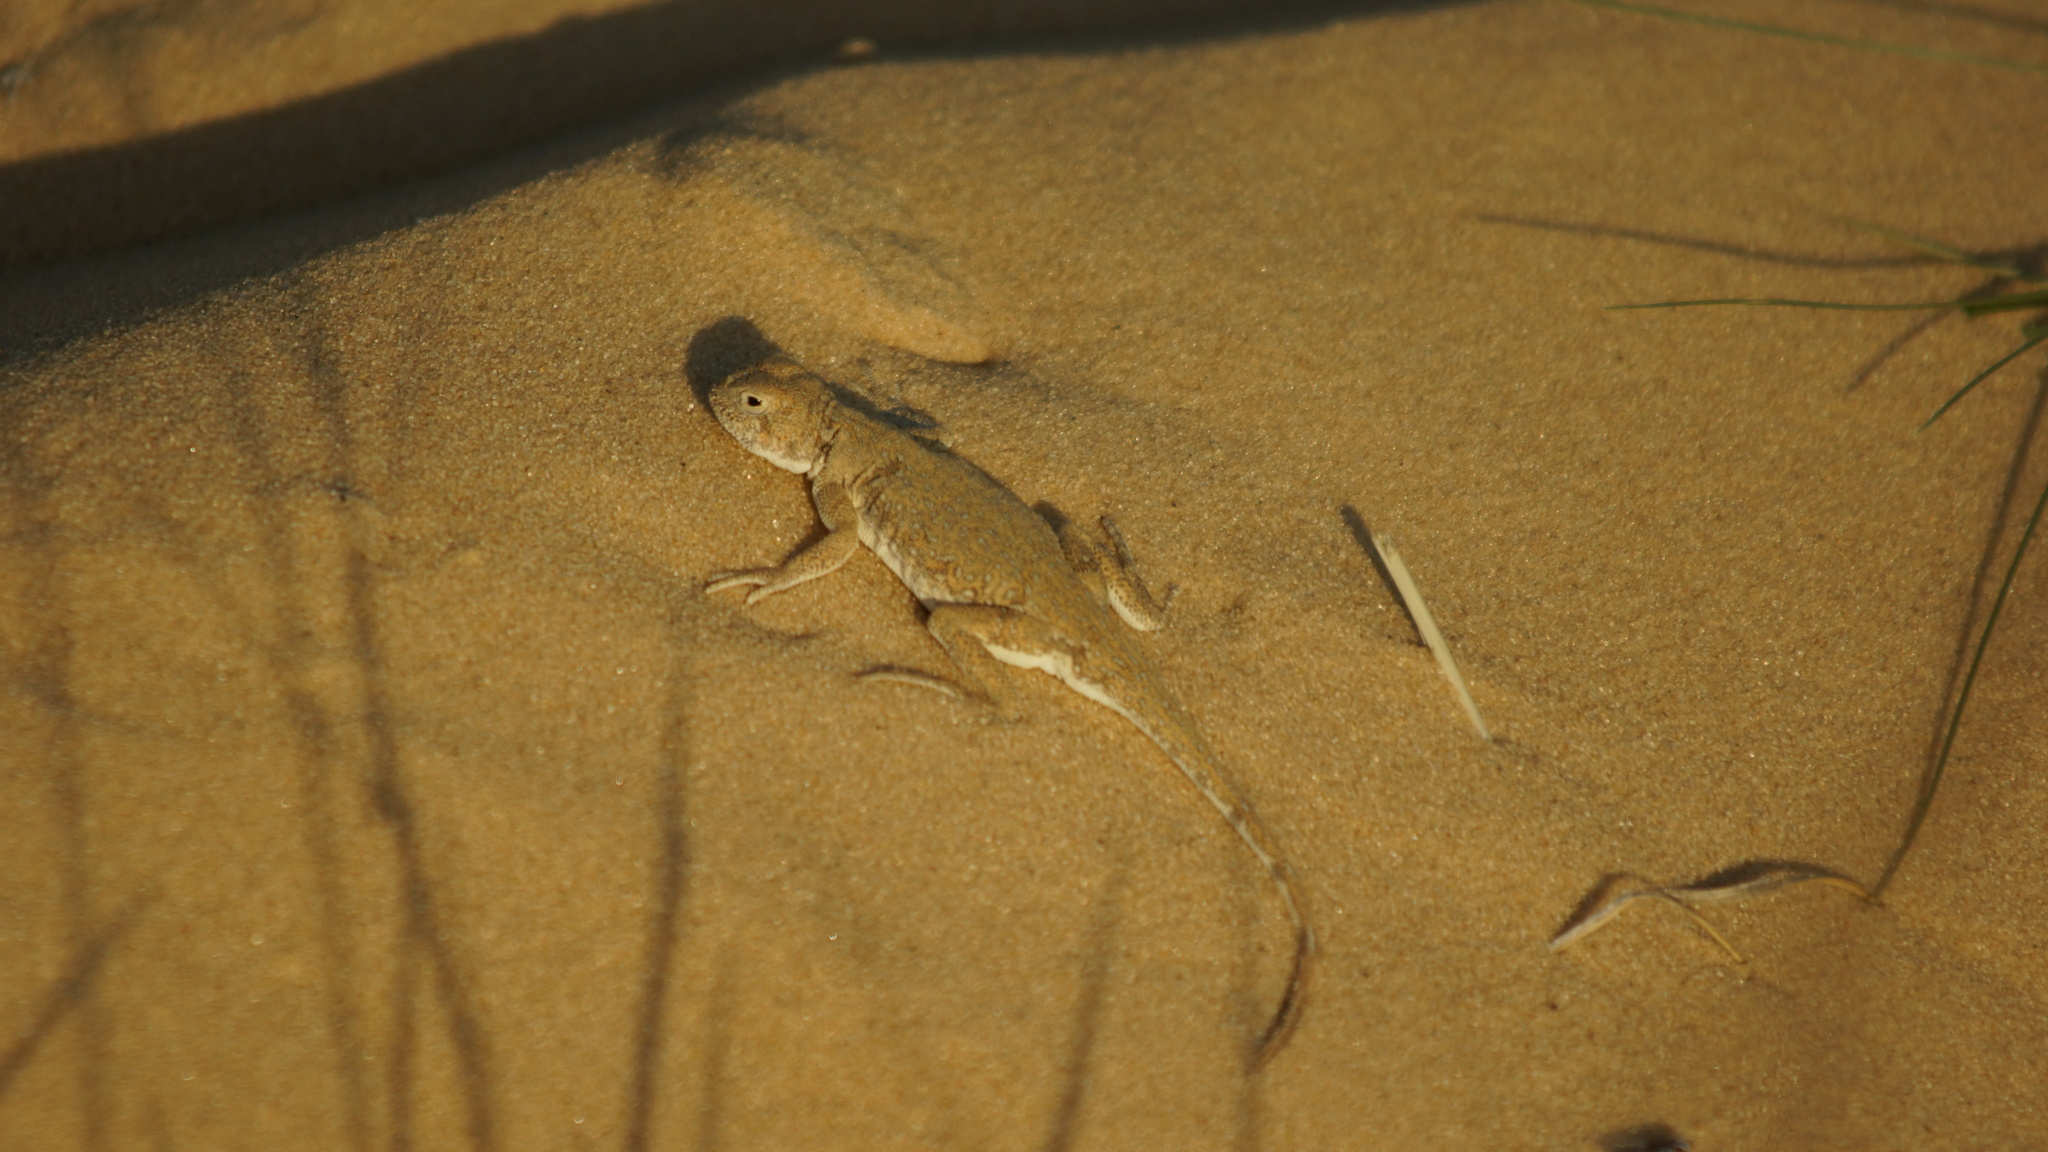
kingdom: Animalia
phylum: Chordata
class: Squamata
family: Agamidae
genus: Phrynocephalus
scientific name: Phrynocephalus guttatus
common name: Spotted toadhead agama
